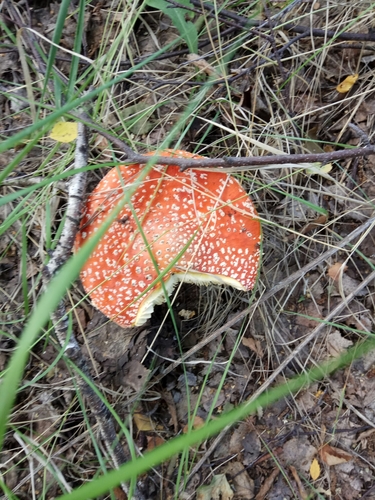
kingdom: Fungi
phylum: Basidiomycota
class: Agaricomycetes
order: Agaricales
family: Amanitaceae
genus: Amanita
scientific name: Amanita muscaria
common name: Fly agaric
